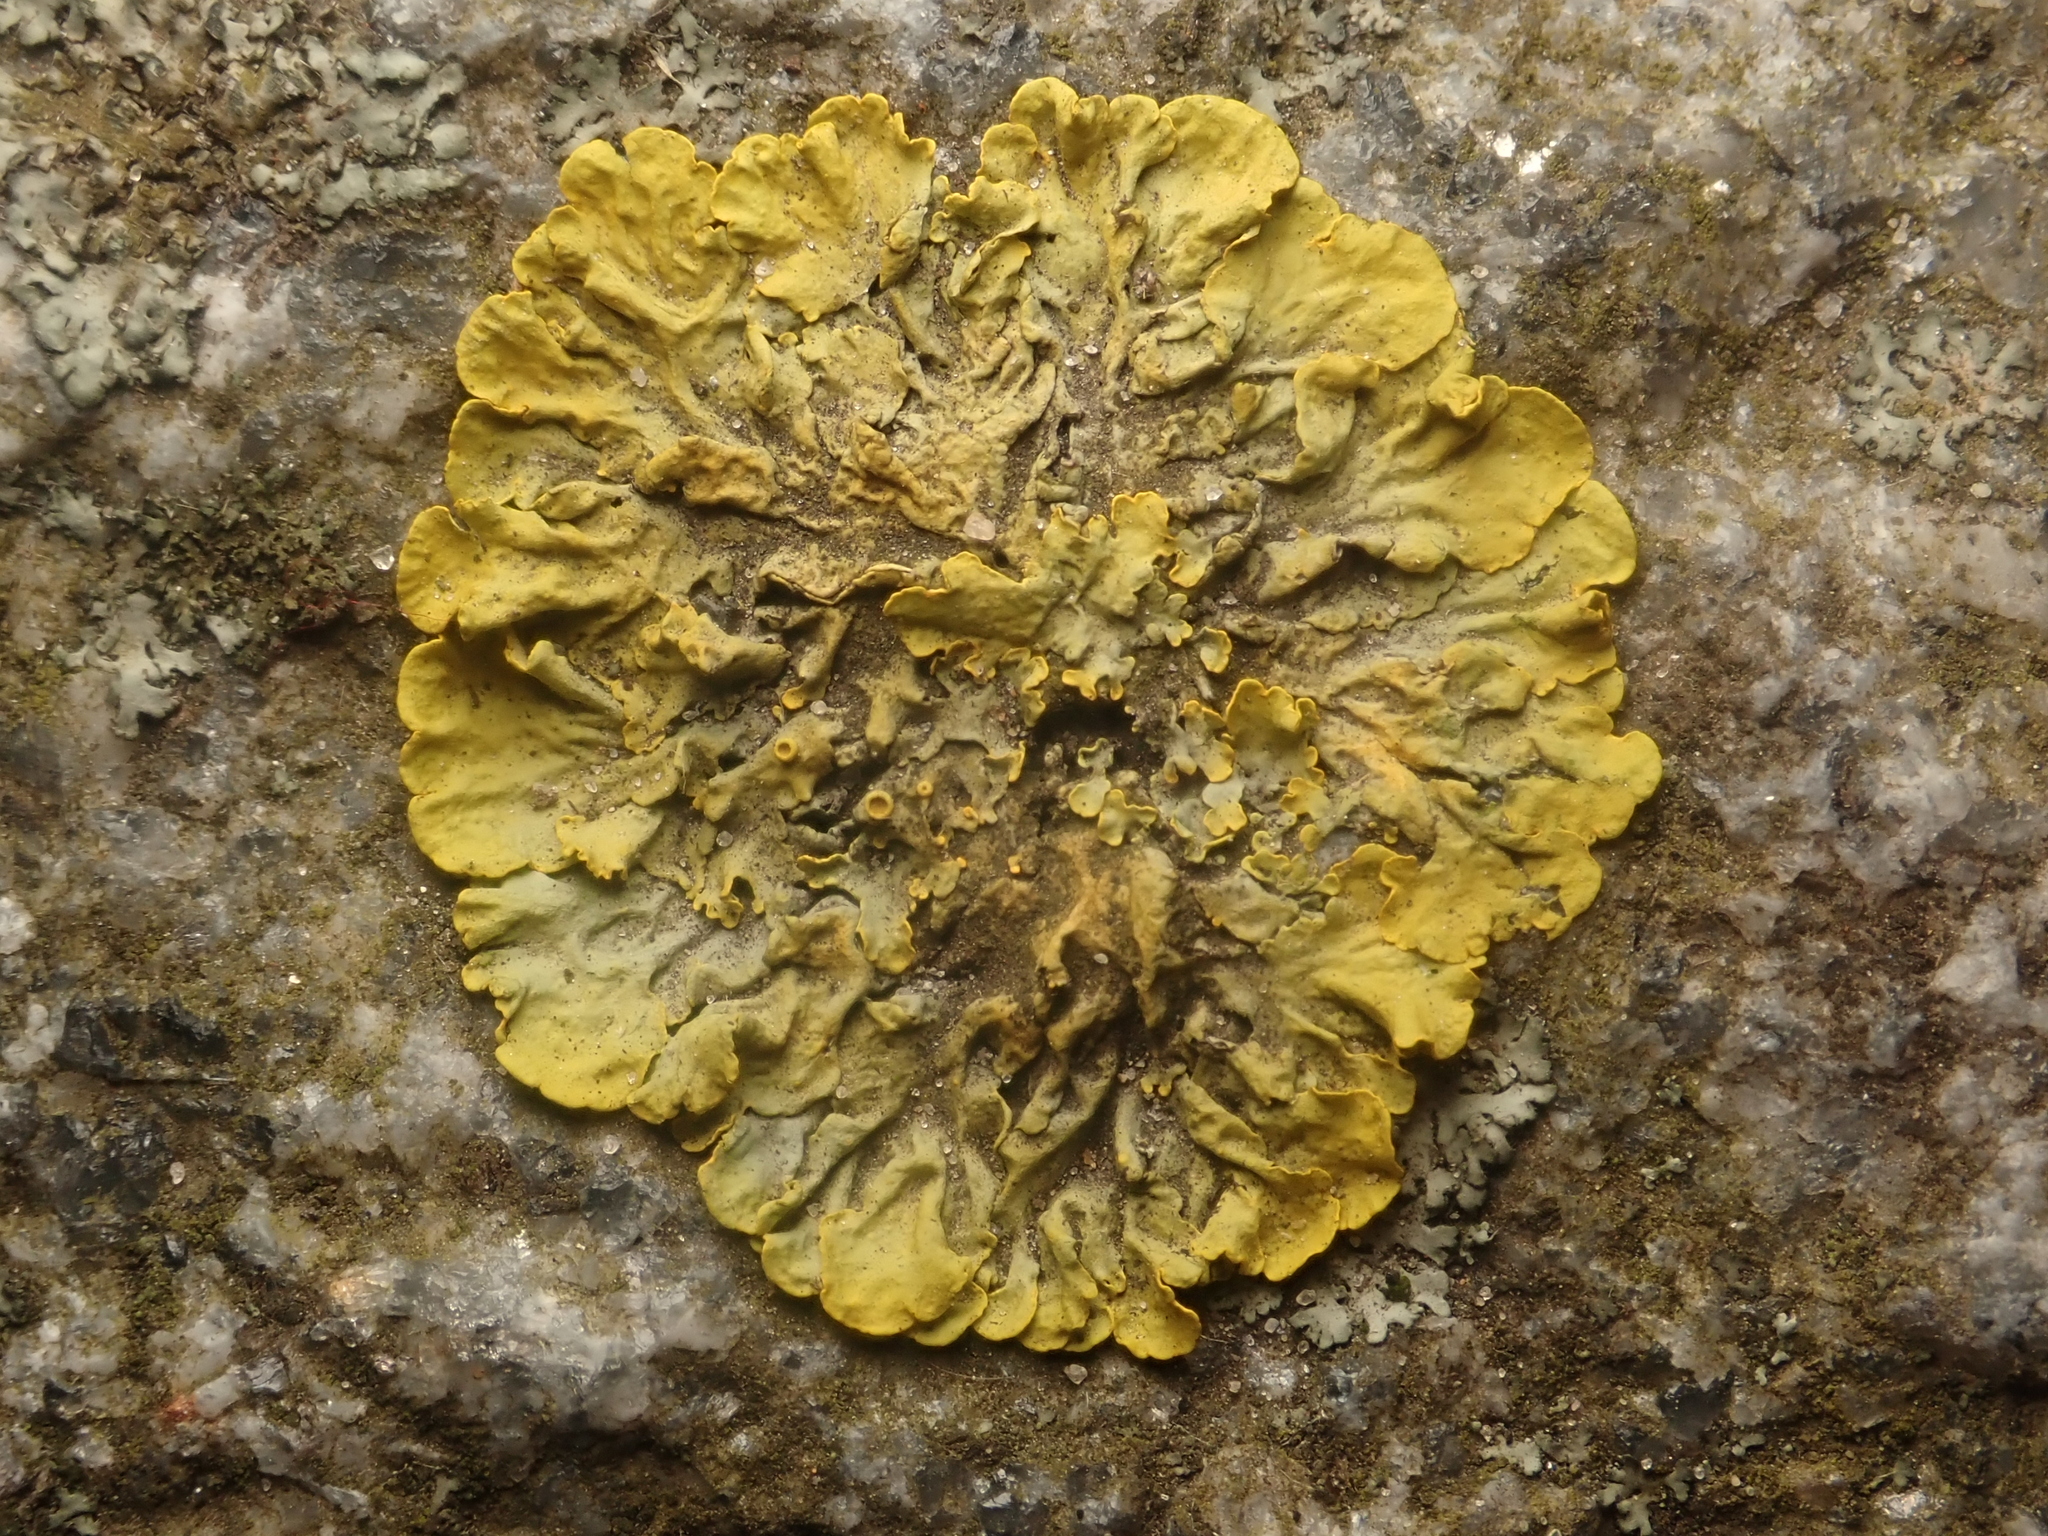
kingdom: Fungi
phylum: Ascomycota
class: Lecanoromycetes
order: Teloschistales
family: Teloschistaceae
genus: Xanthoria
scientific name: Xanthoria parietina
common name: Common orange lichen
